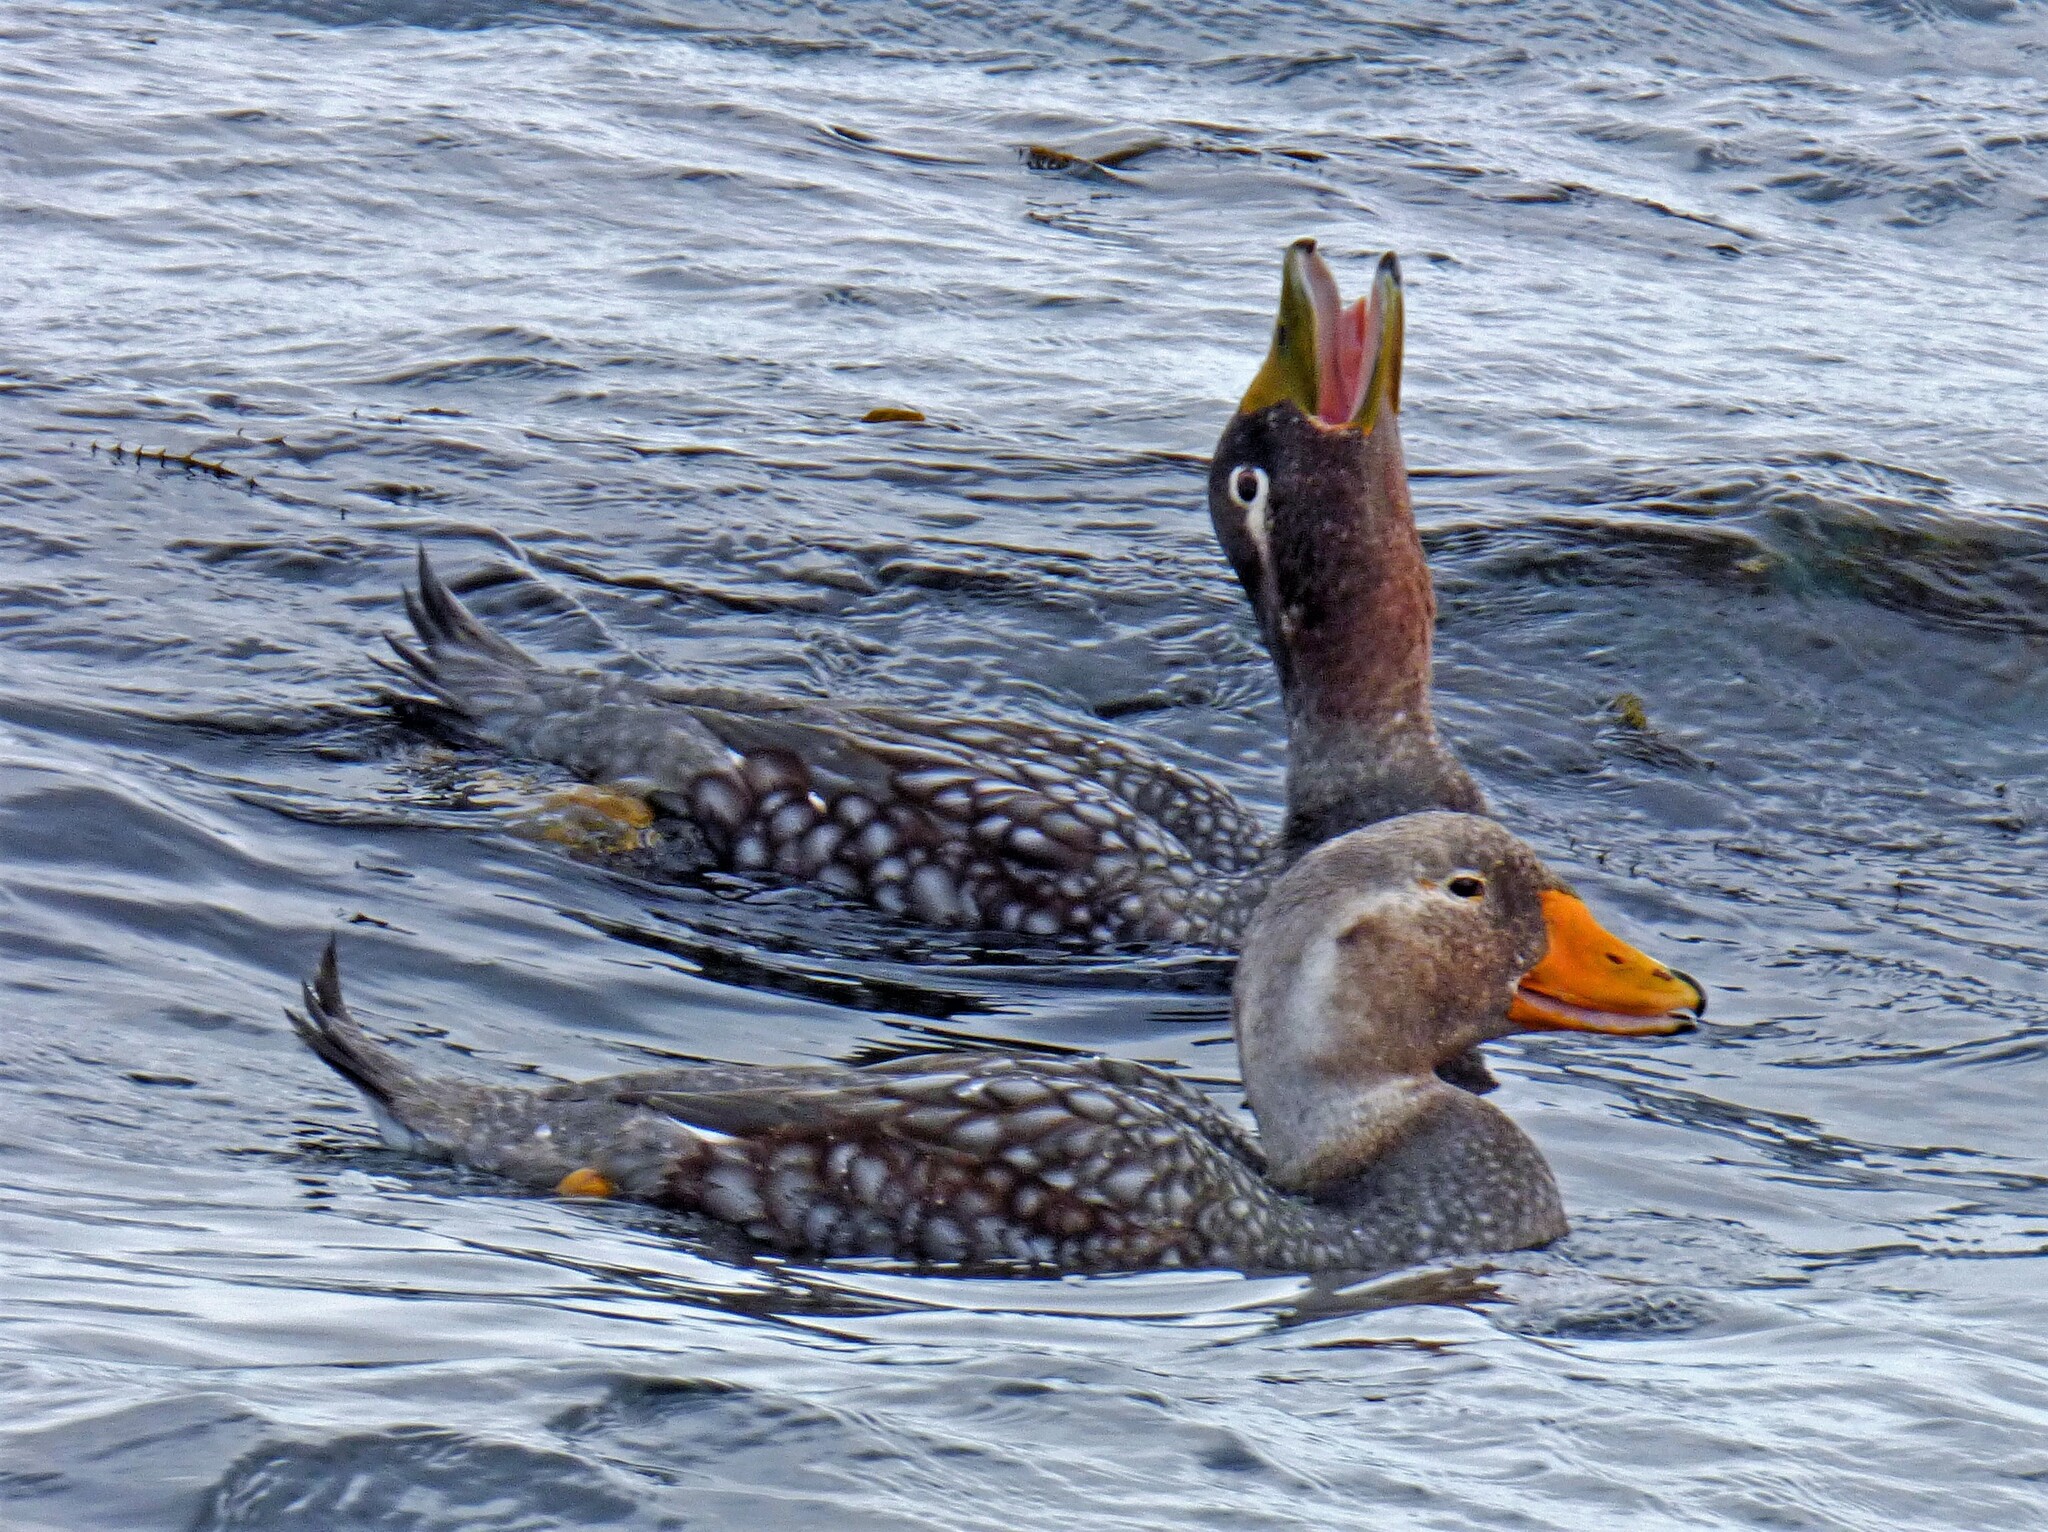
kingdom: Animalia
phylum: Chordata
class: Aves
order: Anseriformes
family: Anatidae
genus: Tachyeres
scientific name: Tachyeres brachypterus
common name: Falkland steamer duck
